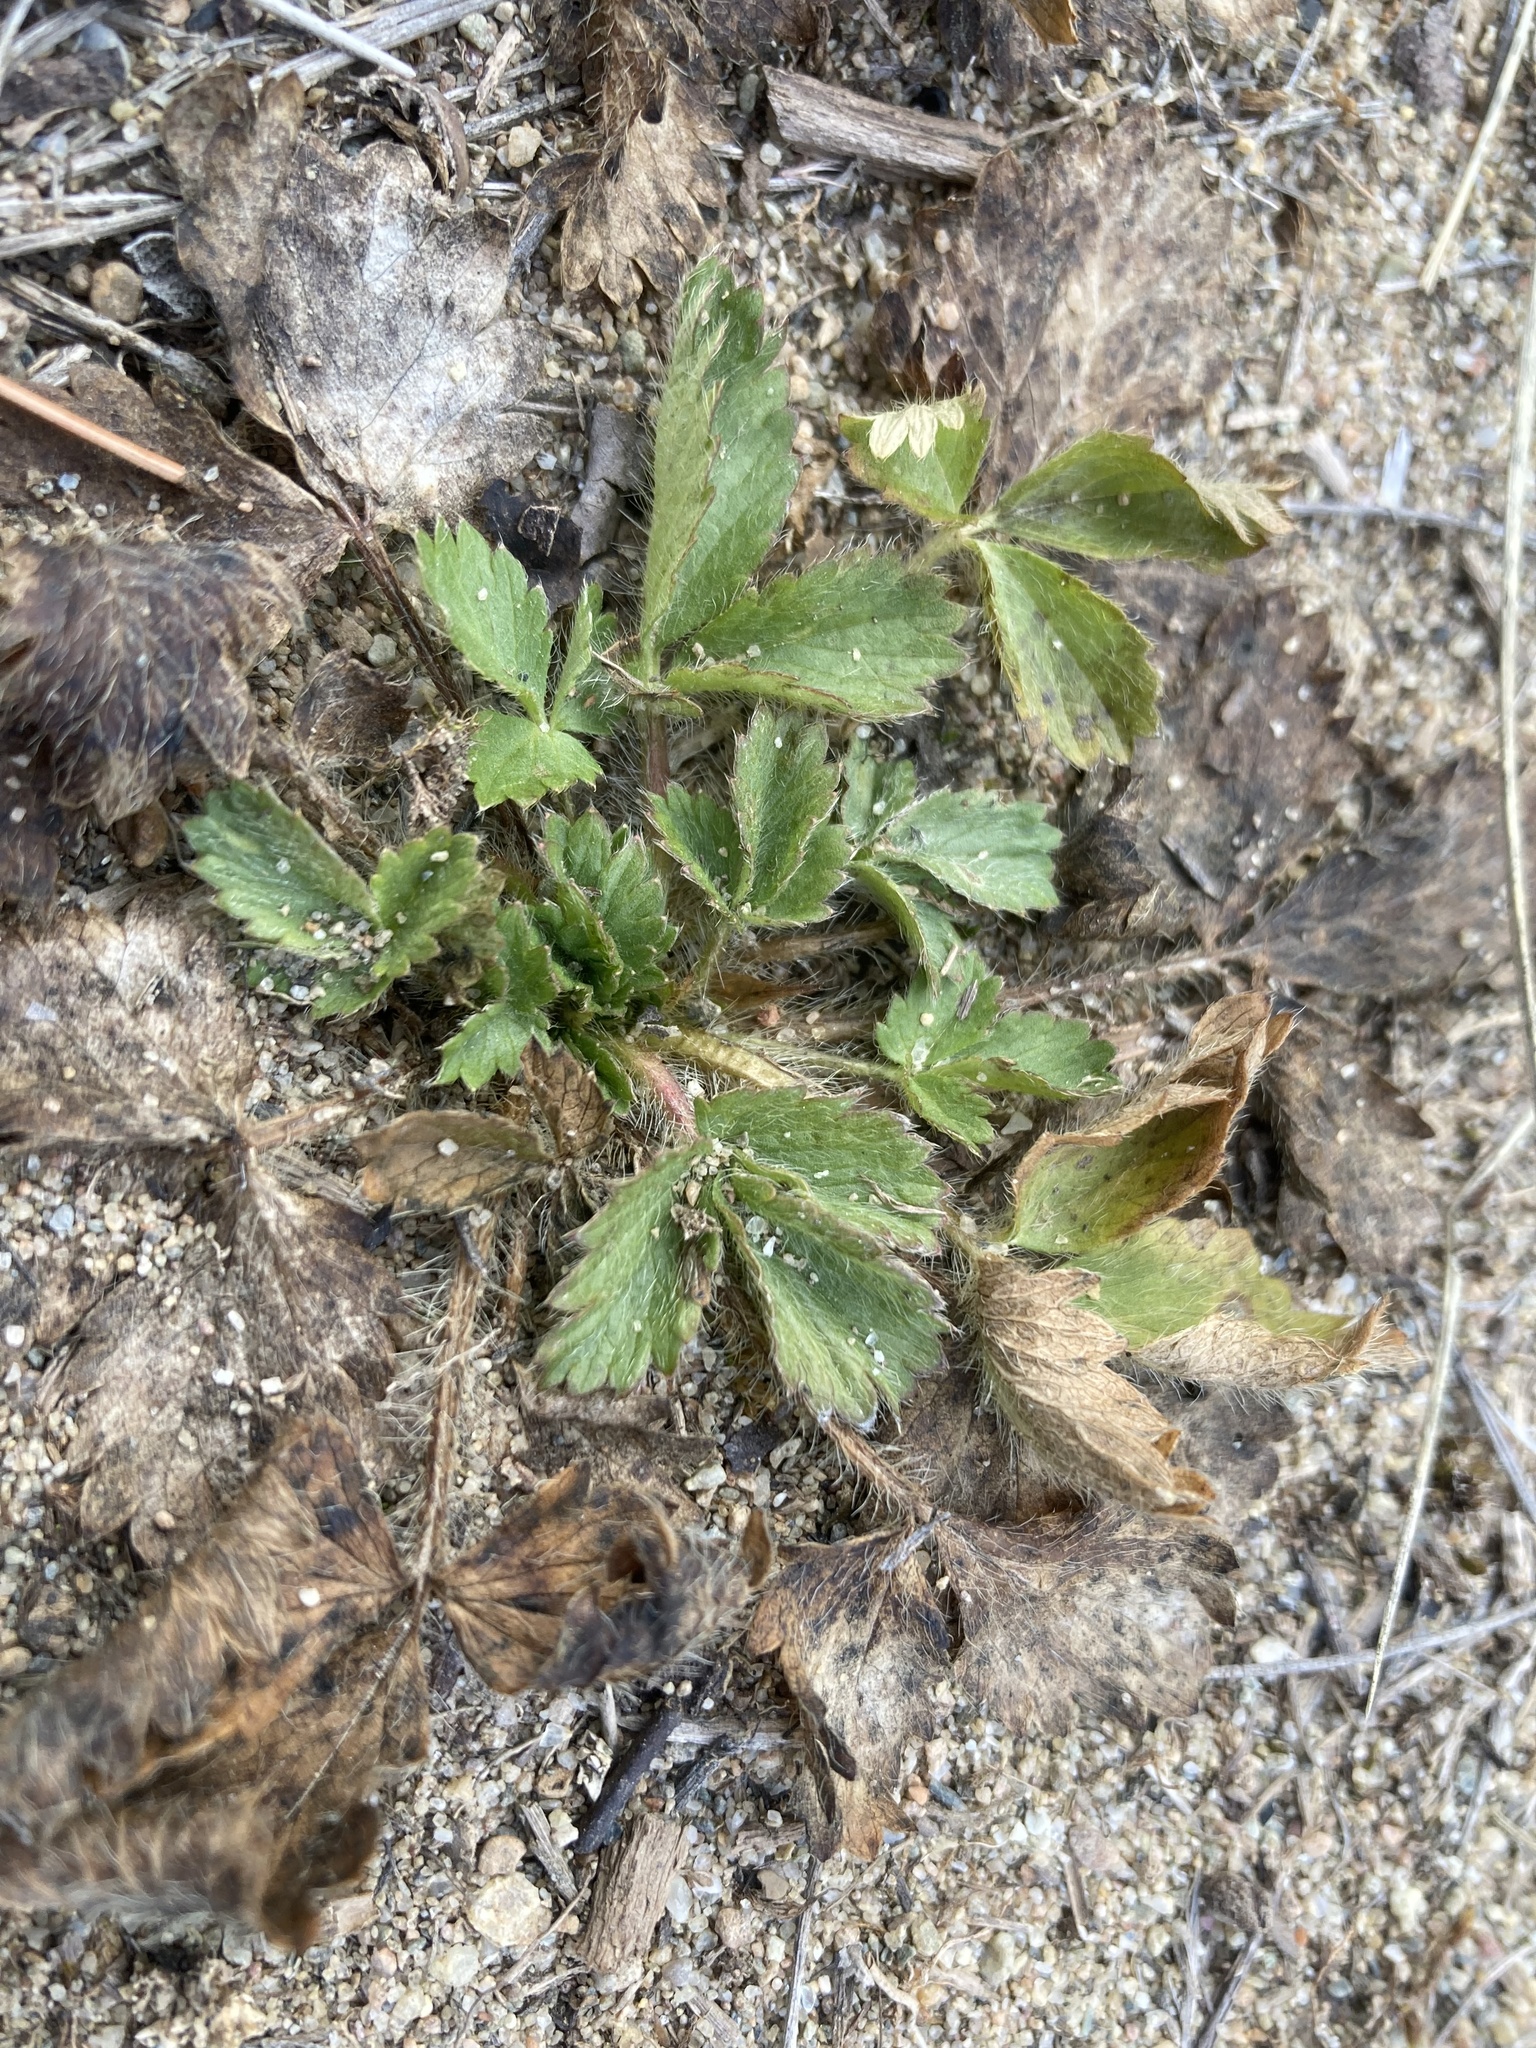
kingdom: Plantae
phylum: Tracheophyta
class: Magnoliopsida
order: Rosales
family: Rosaceae
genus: Potentilla
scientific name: Potentilla norvegica
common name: Ternate-leaved cinquefoil
